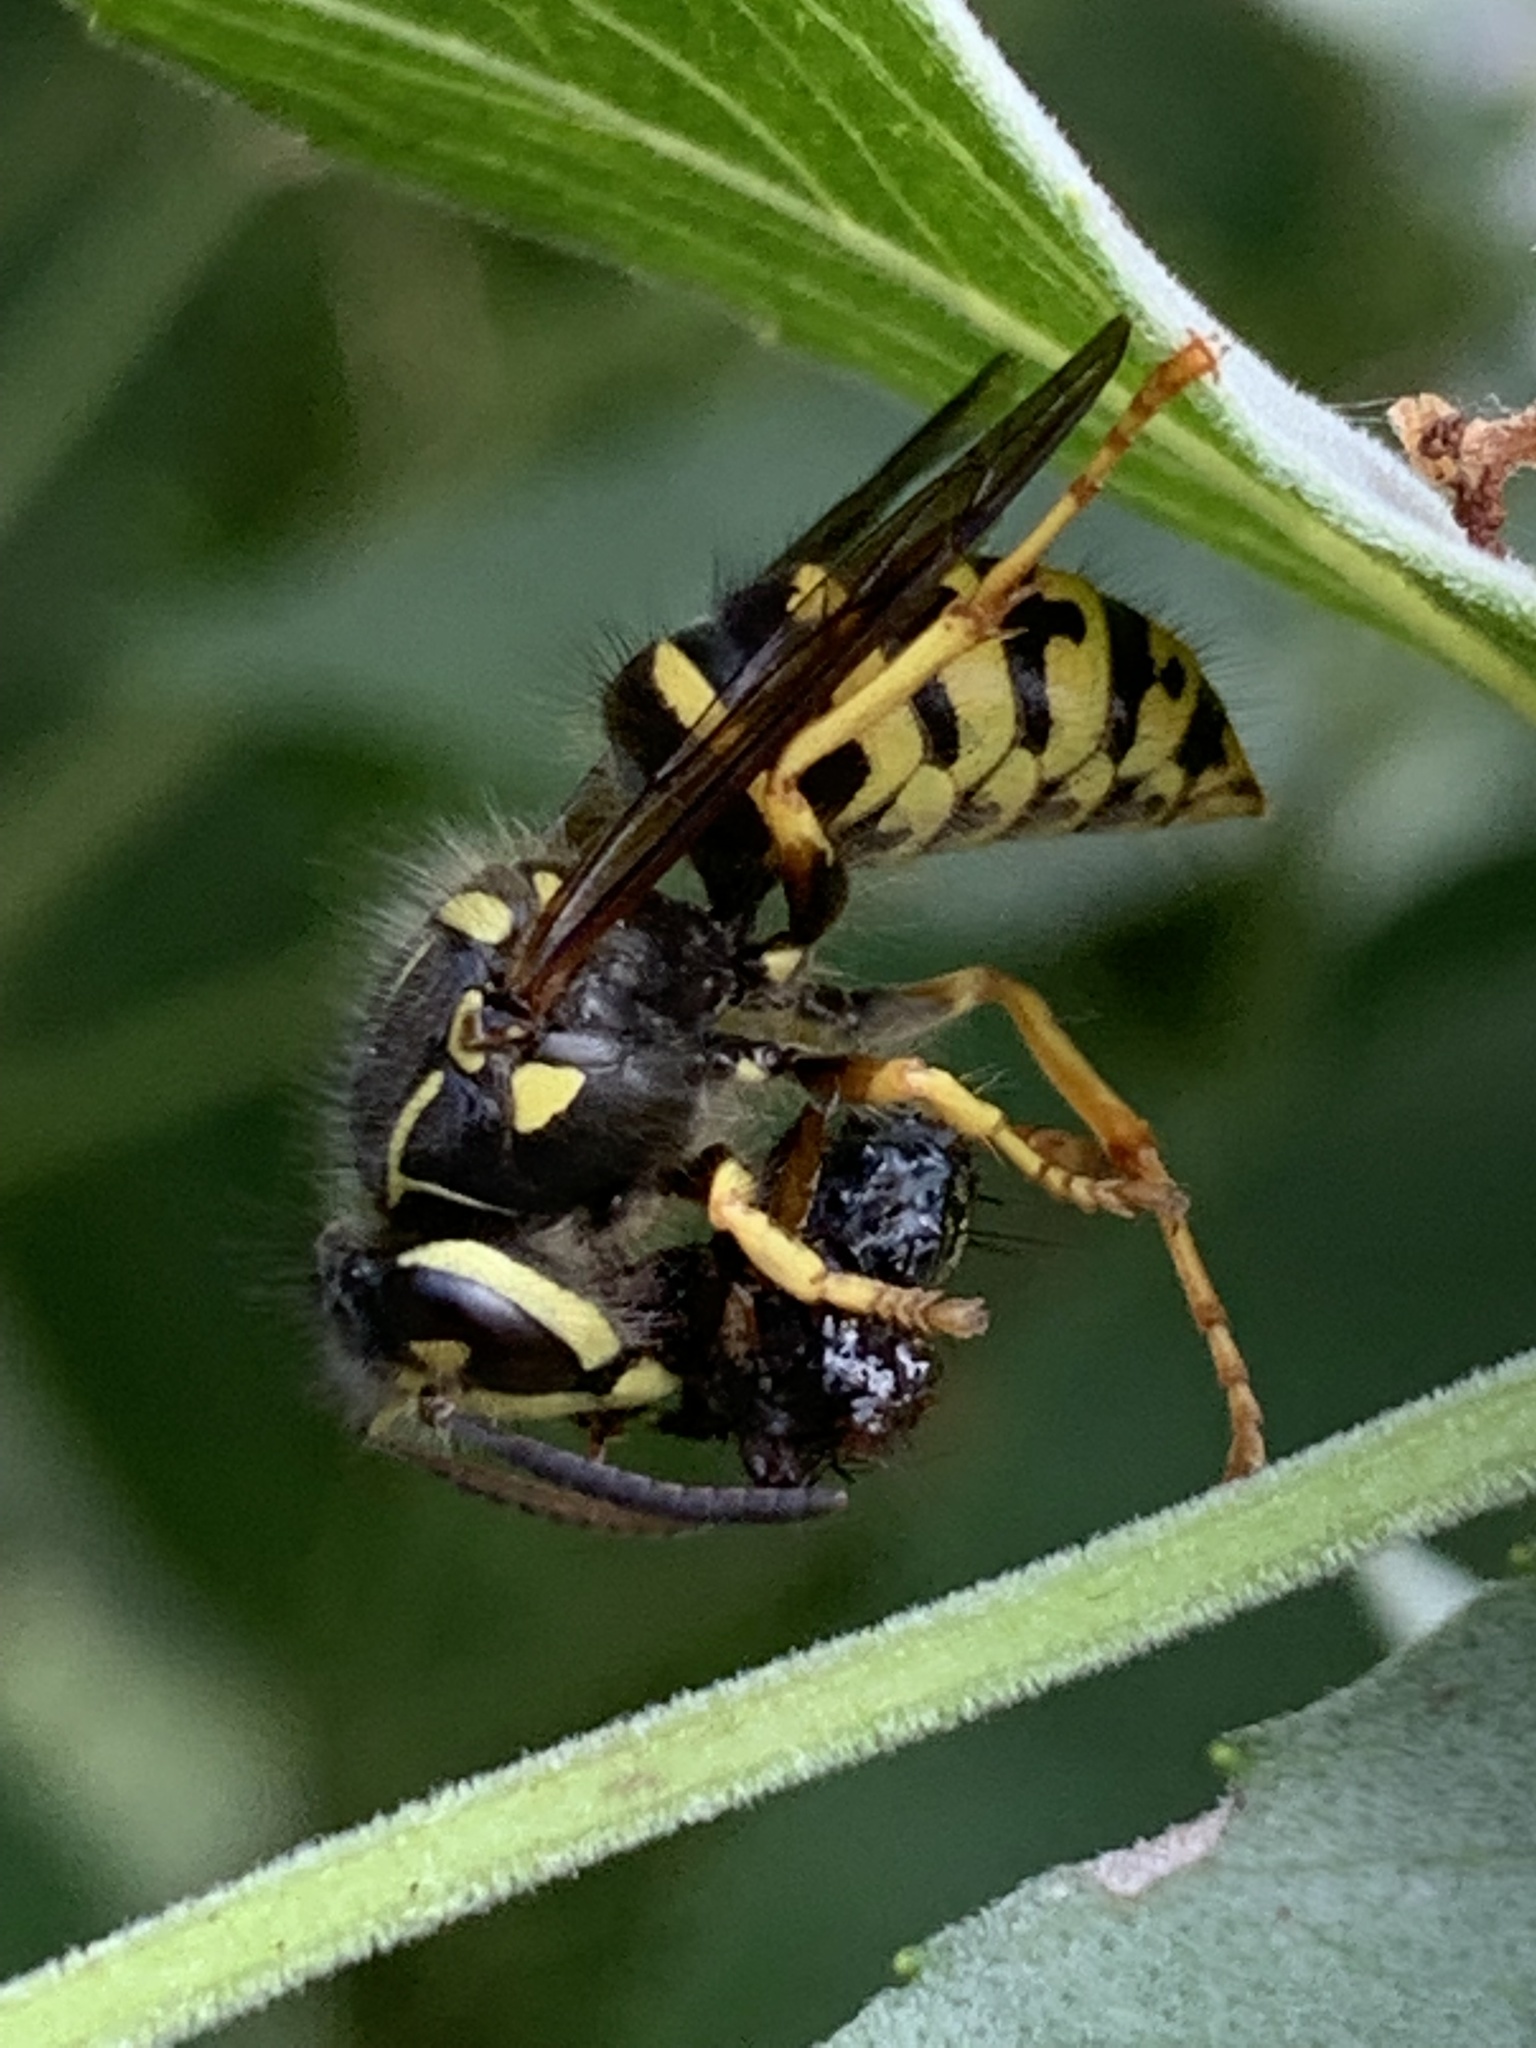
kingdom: Animalia
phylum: Arthropoda
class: Insecta
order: Hymenoptera
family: Vespidae
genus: Dolichovespula
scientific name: Dolichovespula arenaria
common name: Aerial yellowjacket
